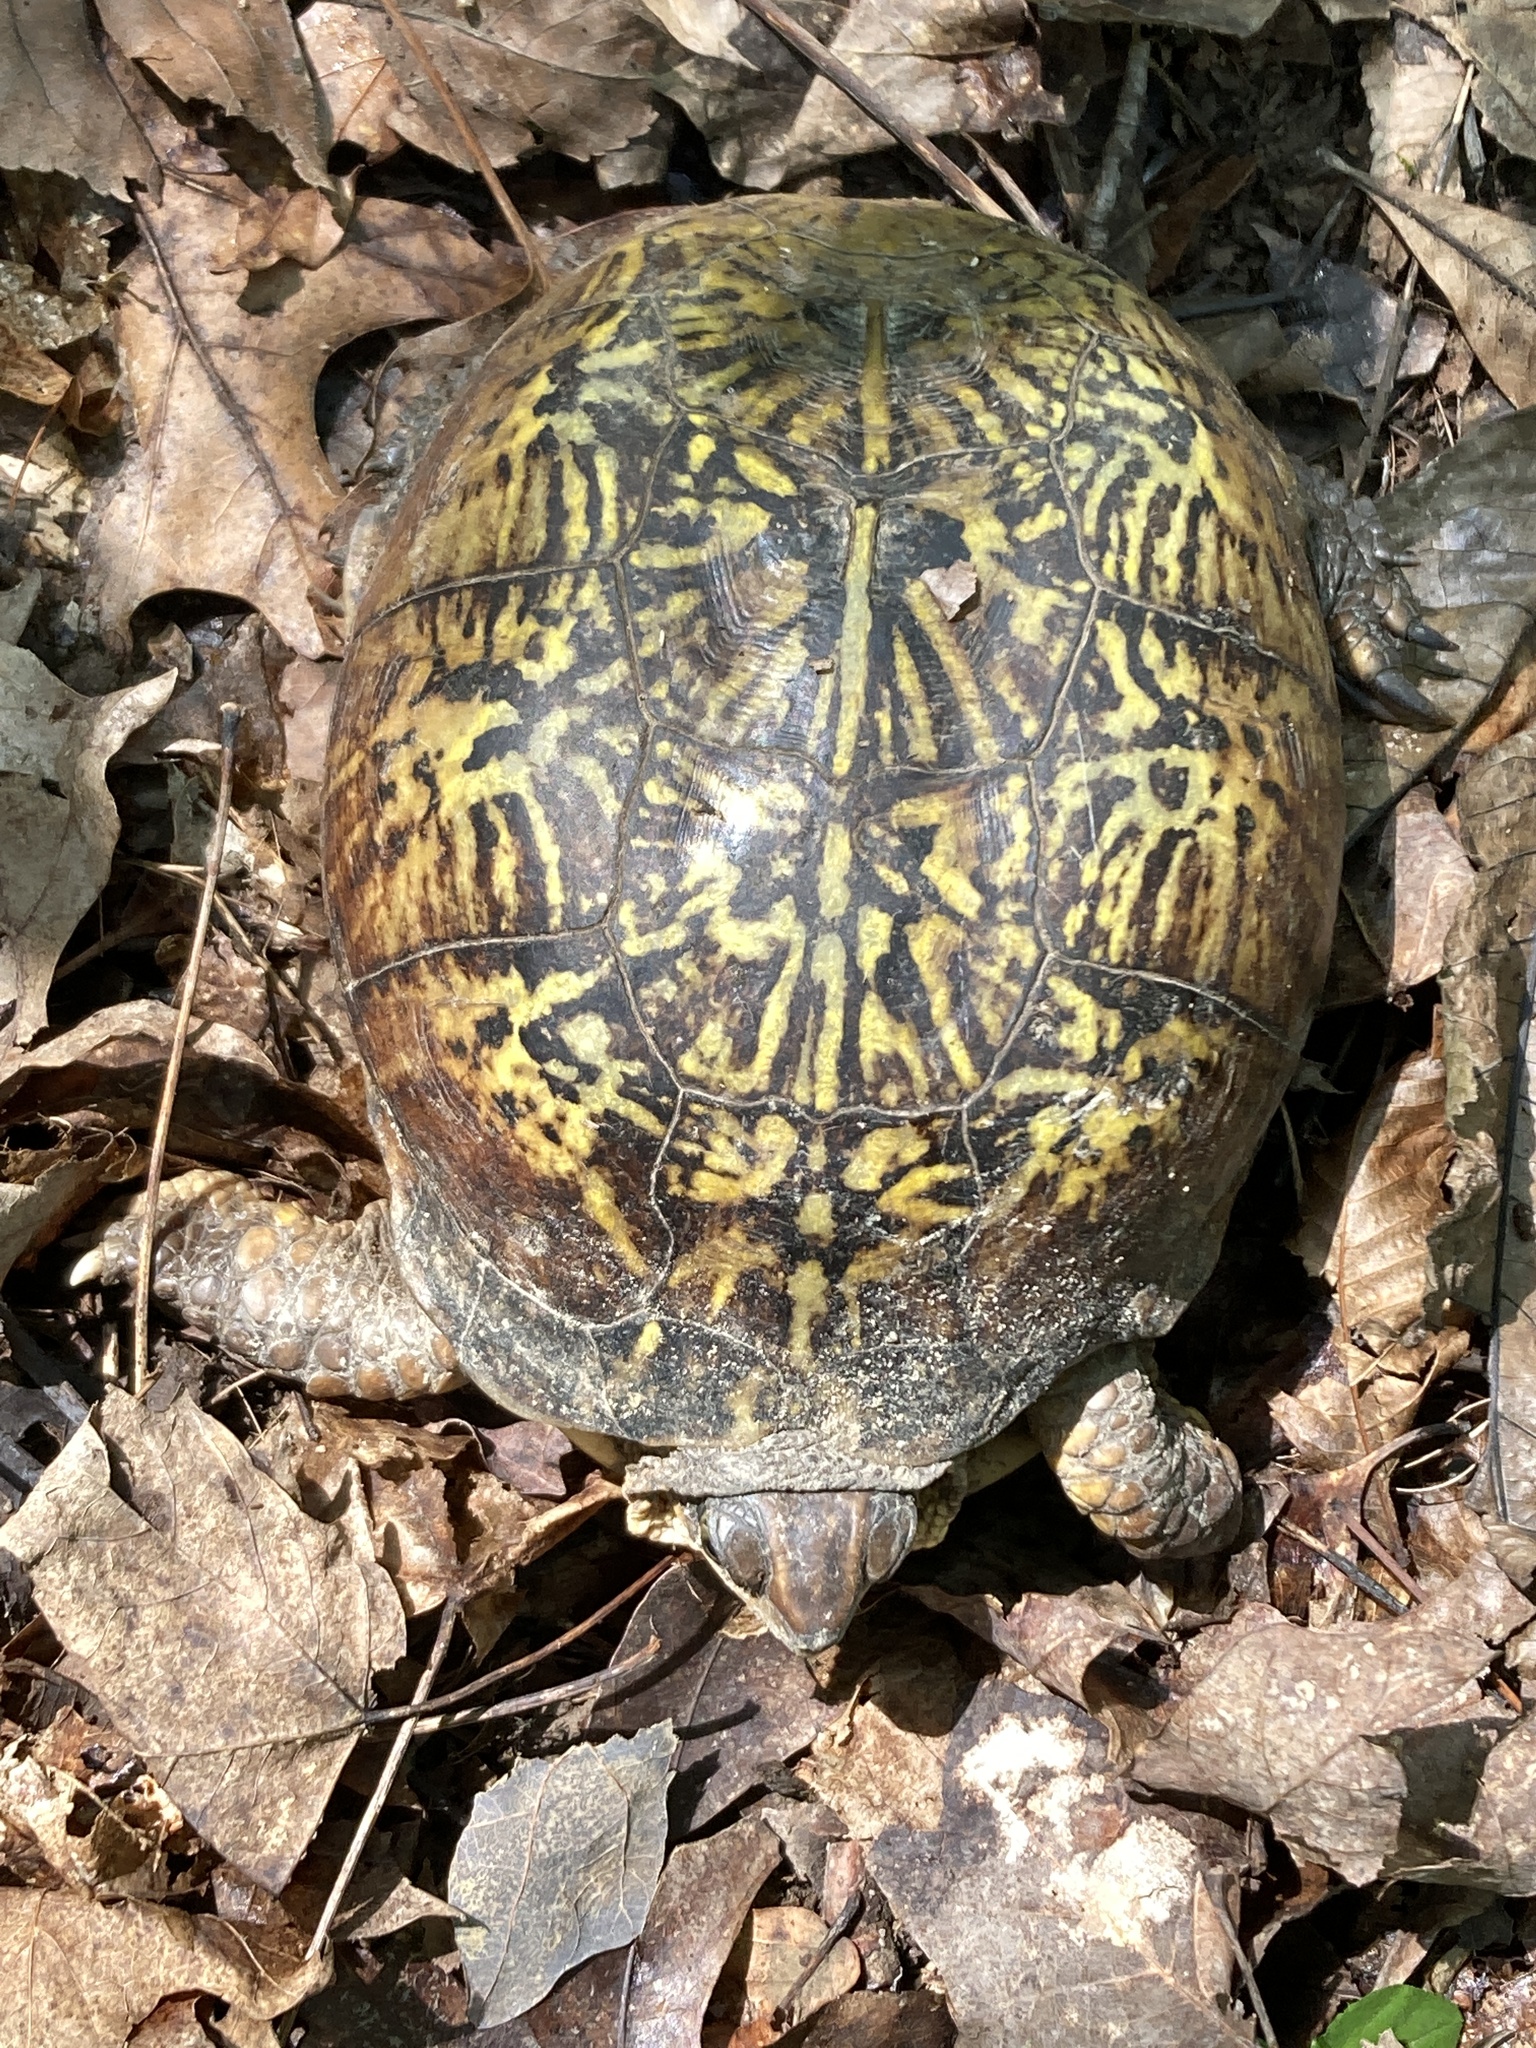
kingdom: Animalia
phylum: Chordata
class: Testudines
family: Emydidae
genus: Terrapene
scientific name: Terrapene carolina
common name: Common box turtle
